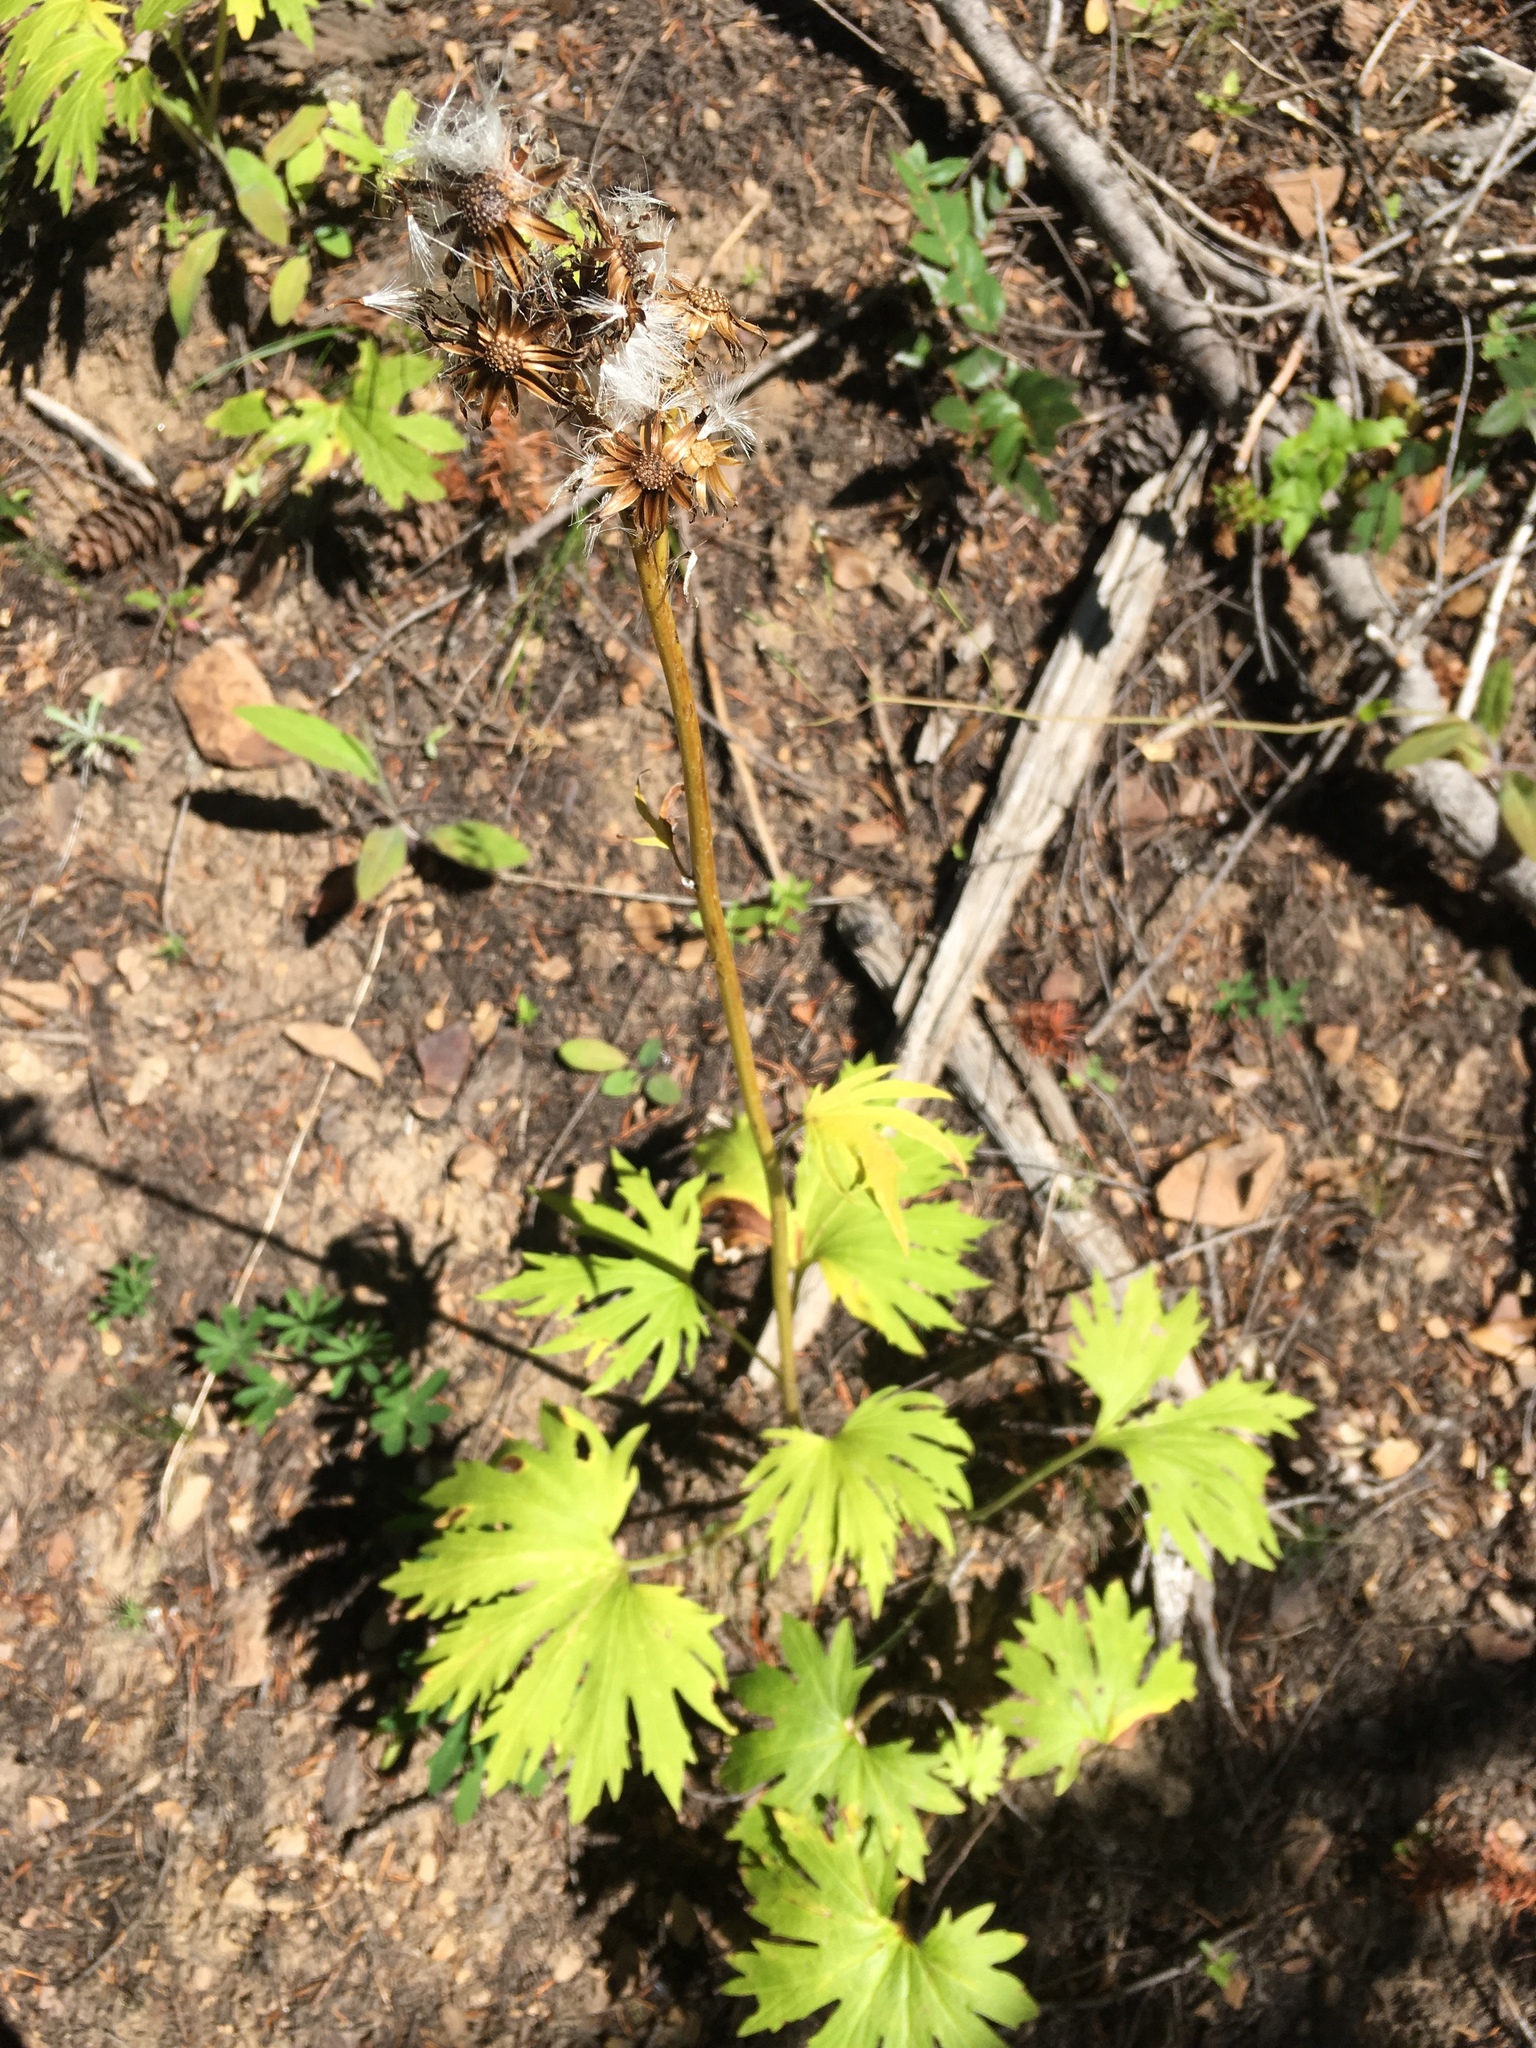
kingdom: Plantae
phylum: Tracheophyta
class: Magnoliopsida
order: Asterales
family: Asteraceae
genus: Cacaliopsis
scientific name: Cacaliopsis nardosmia
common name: Silvercrown
